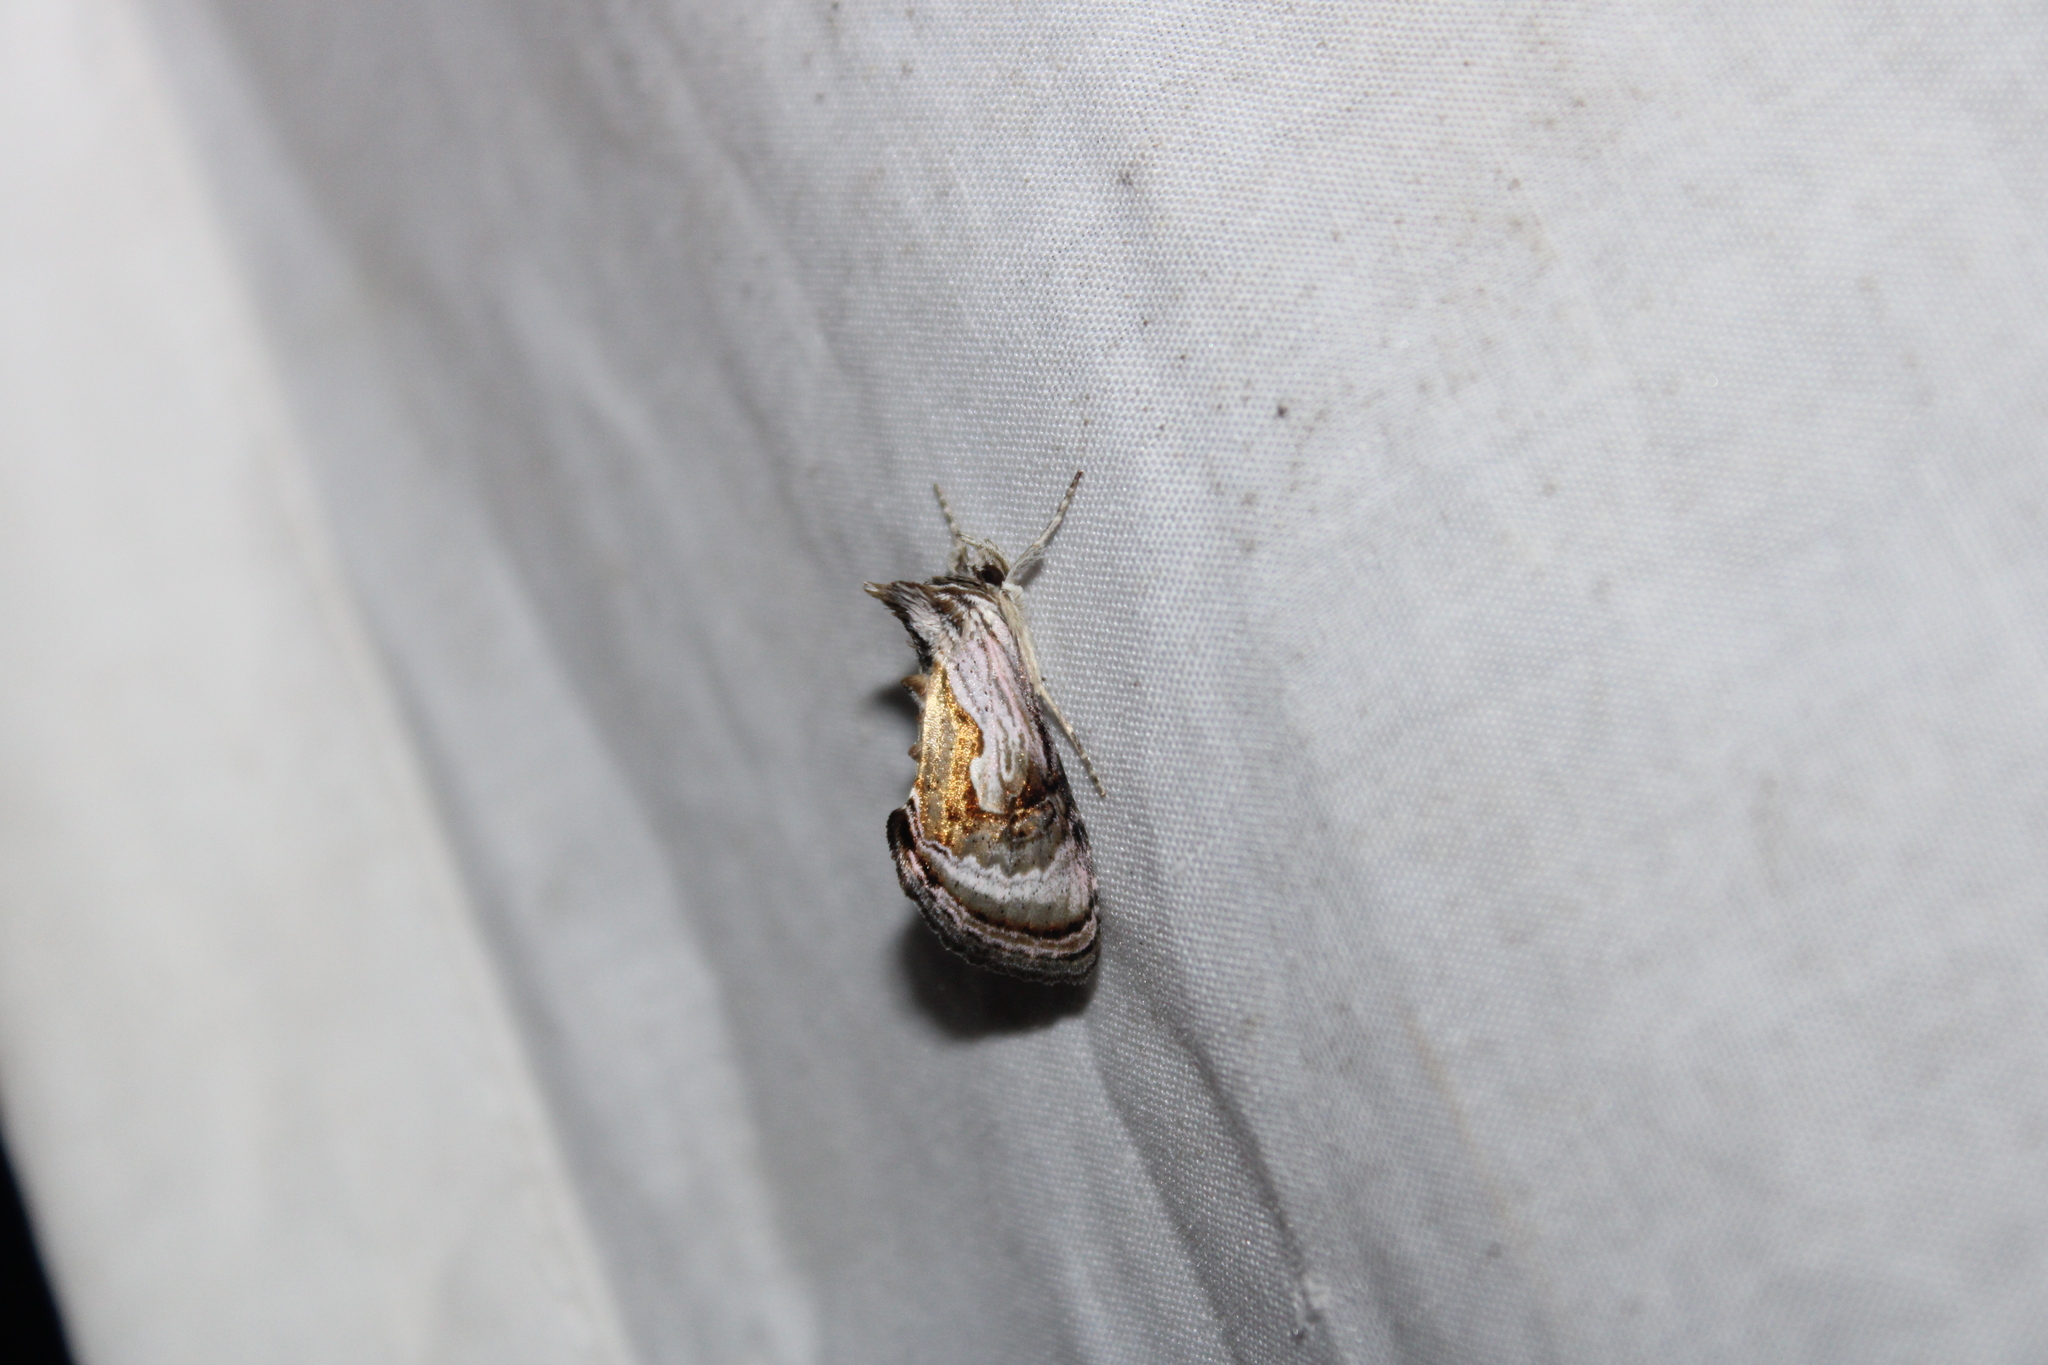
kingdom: Animalia
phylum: Arthropoda
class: Insecta
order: Lepidoptera
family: Noctuidae
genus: Chrysanympha
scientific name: Chrysanympha formosa
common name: Formosa looper moth
